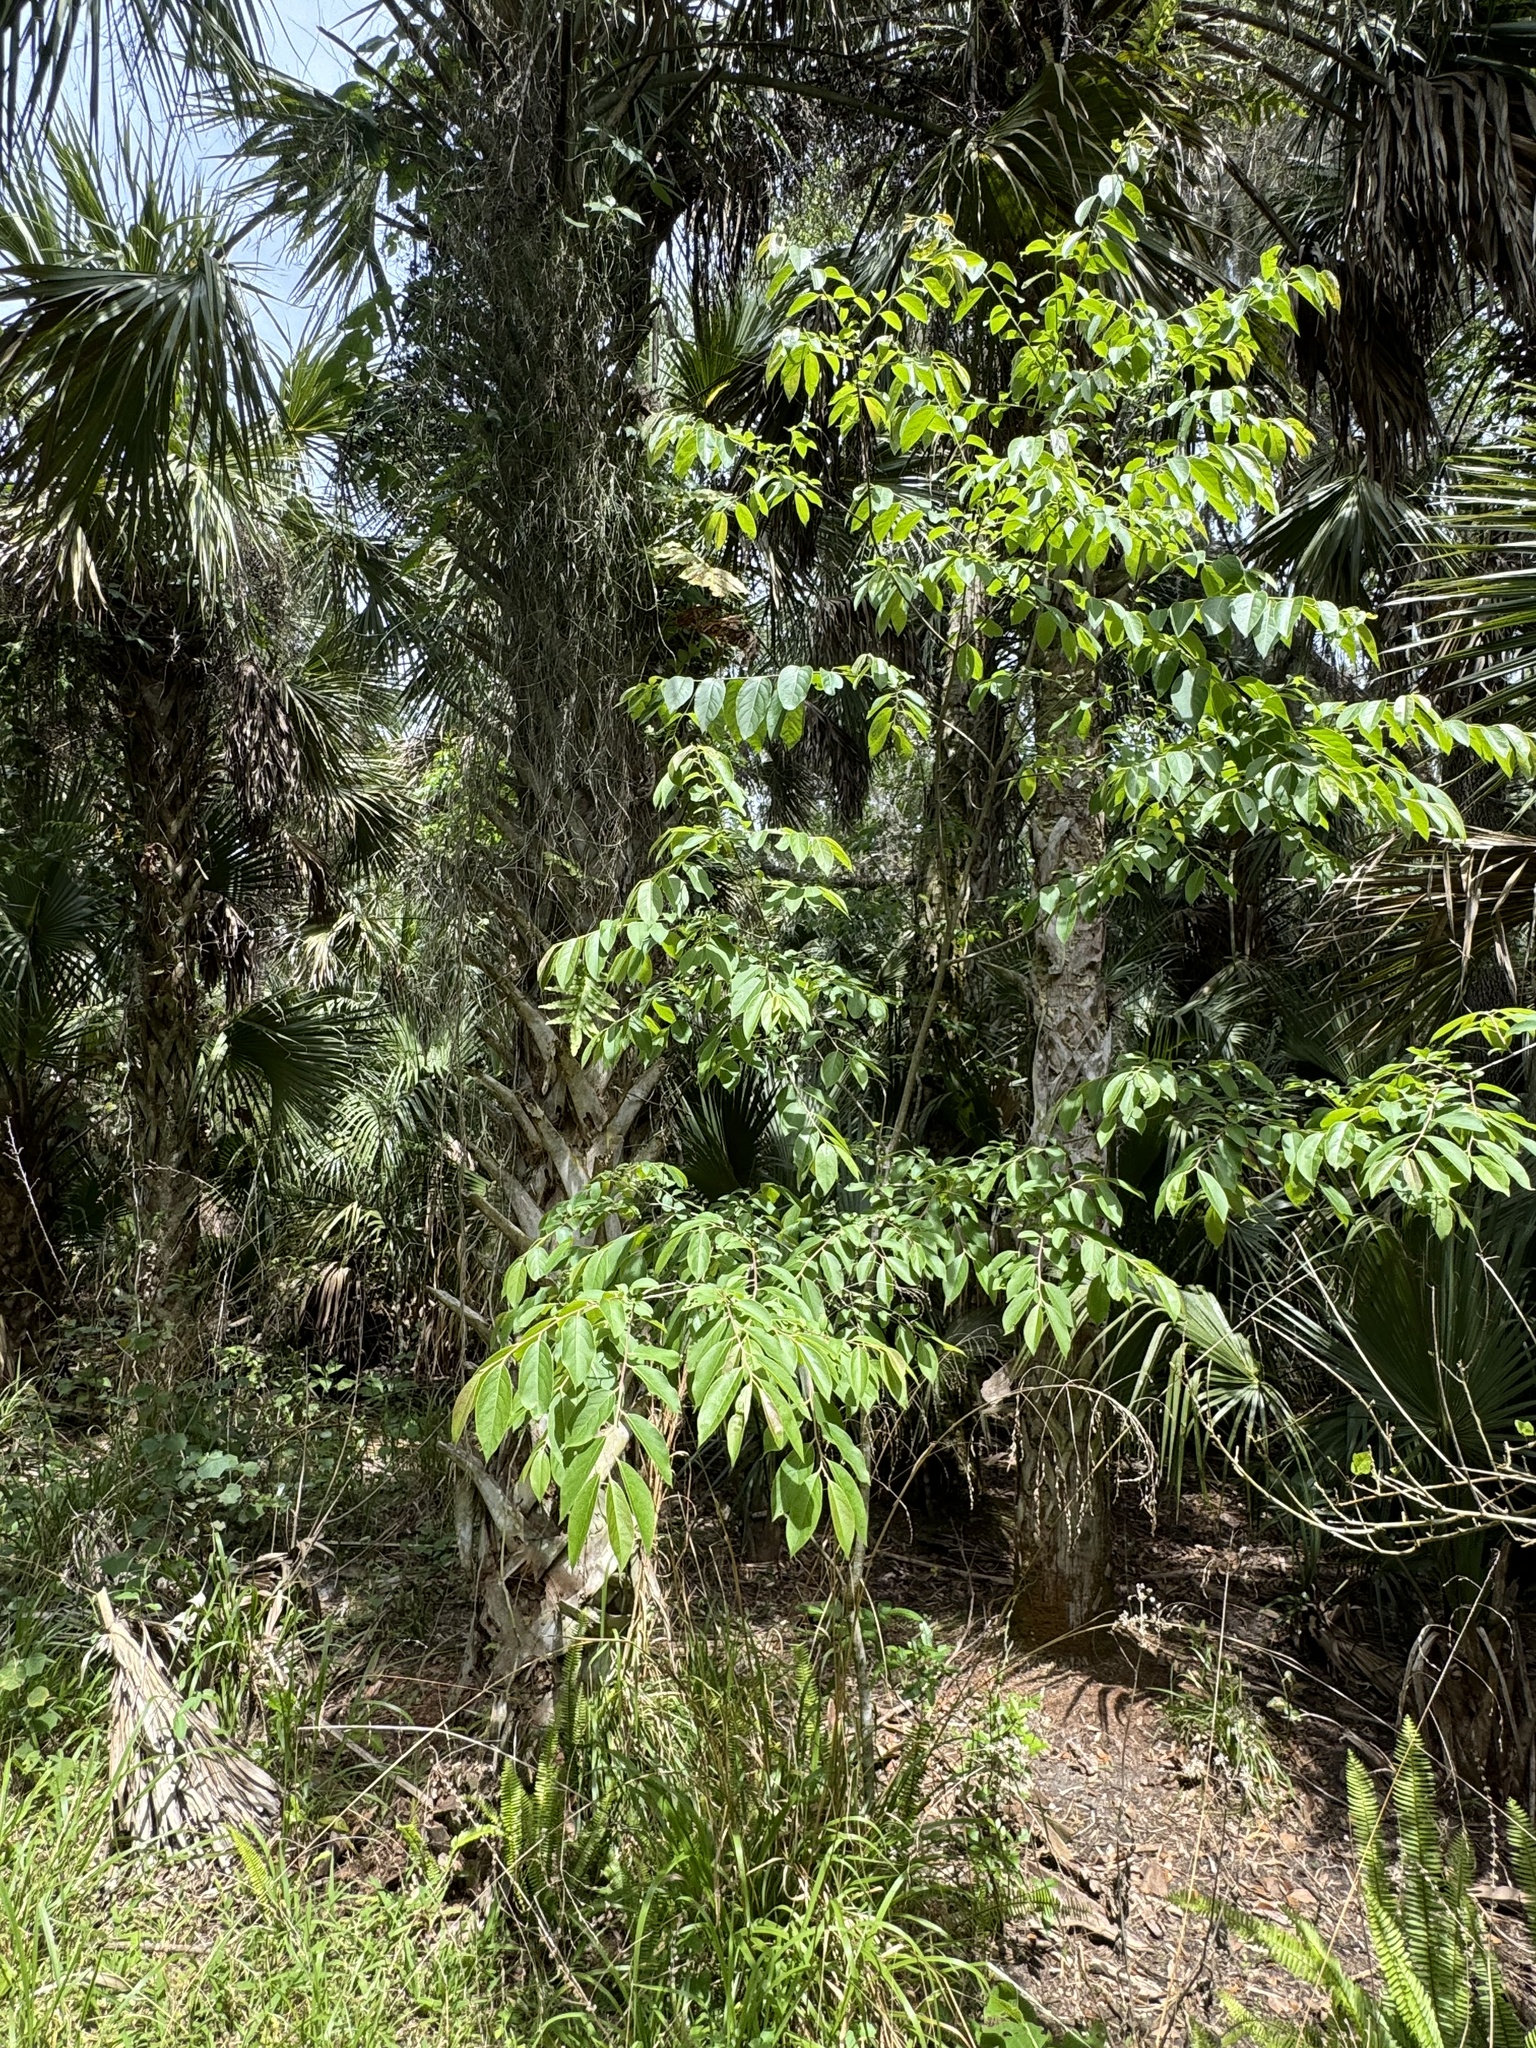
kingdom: Plantae
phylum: Tracheophyta
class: Magnoliopsida
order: Ericales
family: Ebenaceae
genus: Diospyros
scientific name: Diospyros virginiana
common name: Persimmon
